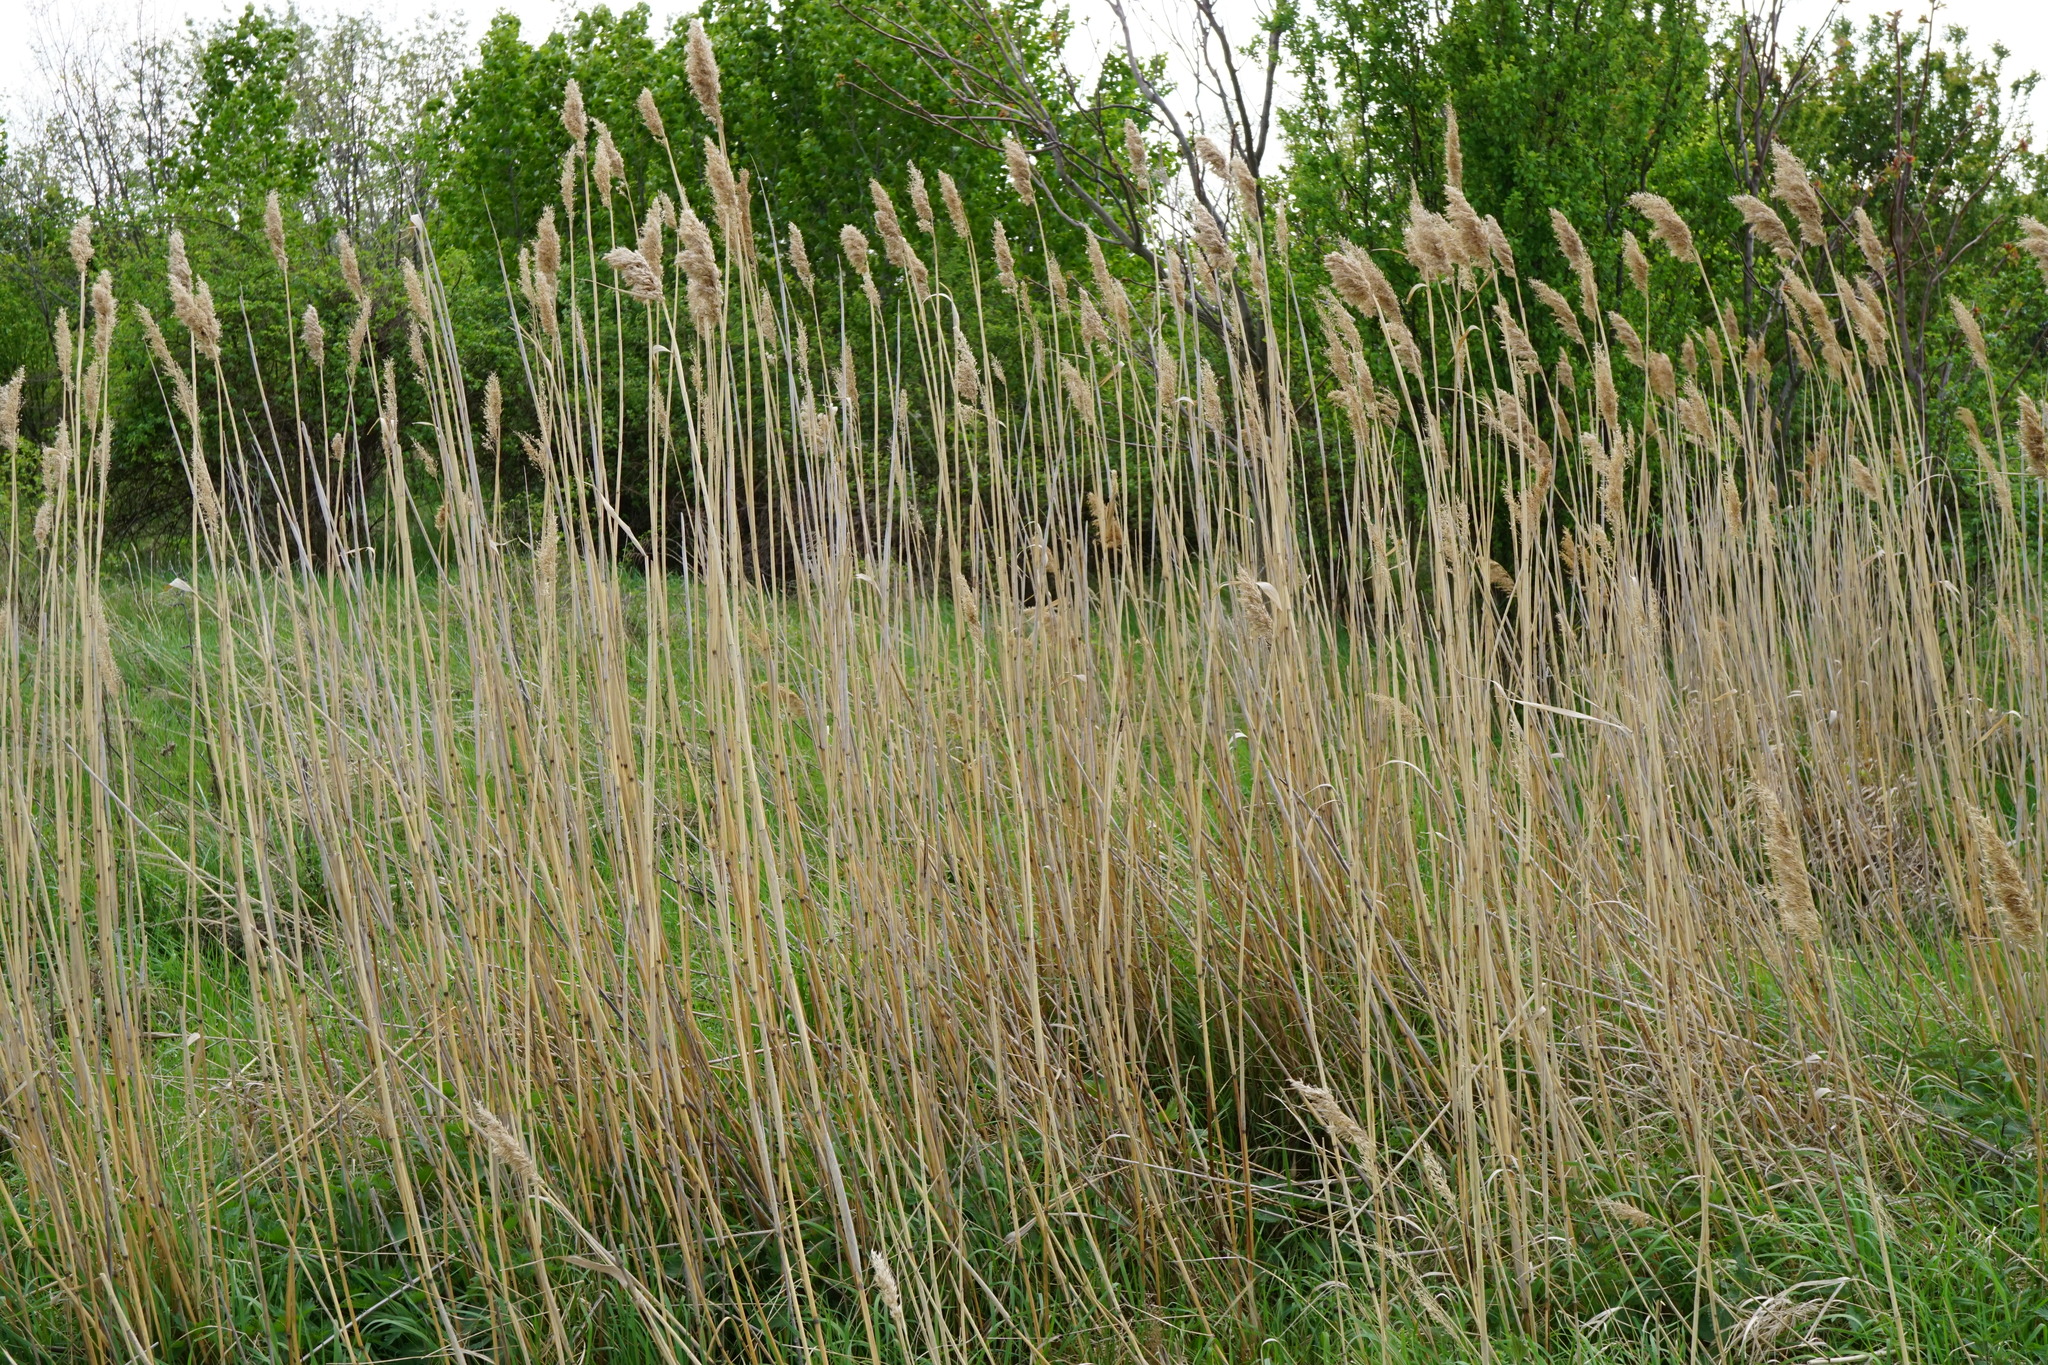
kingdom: Plantae
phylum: Tracheophyta
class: Liliopsida
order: Poales
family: Poaceae
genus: Phragmites
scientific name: Phragmites australis
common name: Common reed
